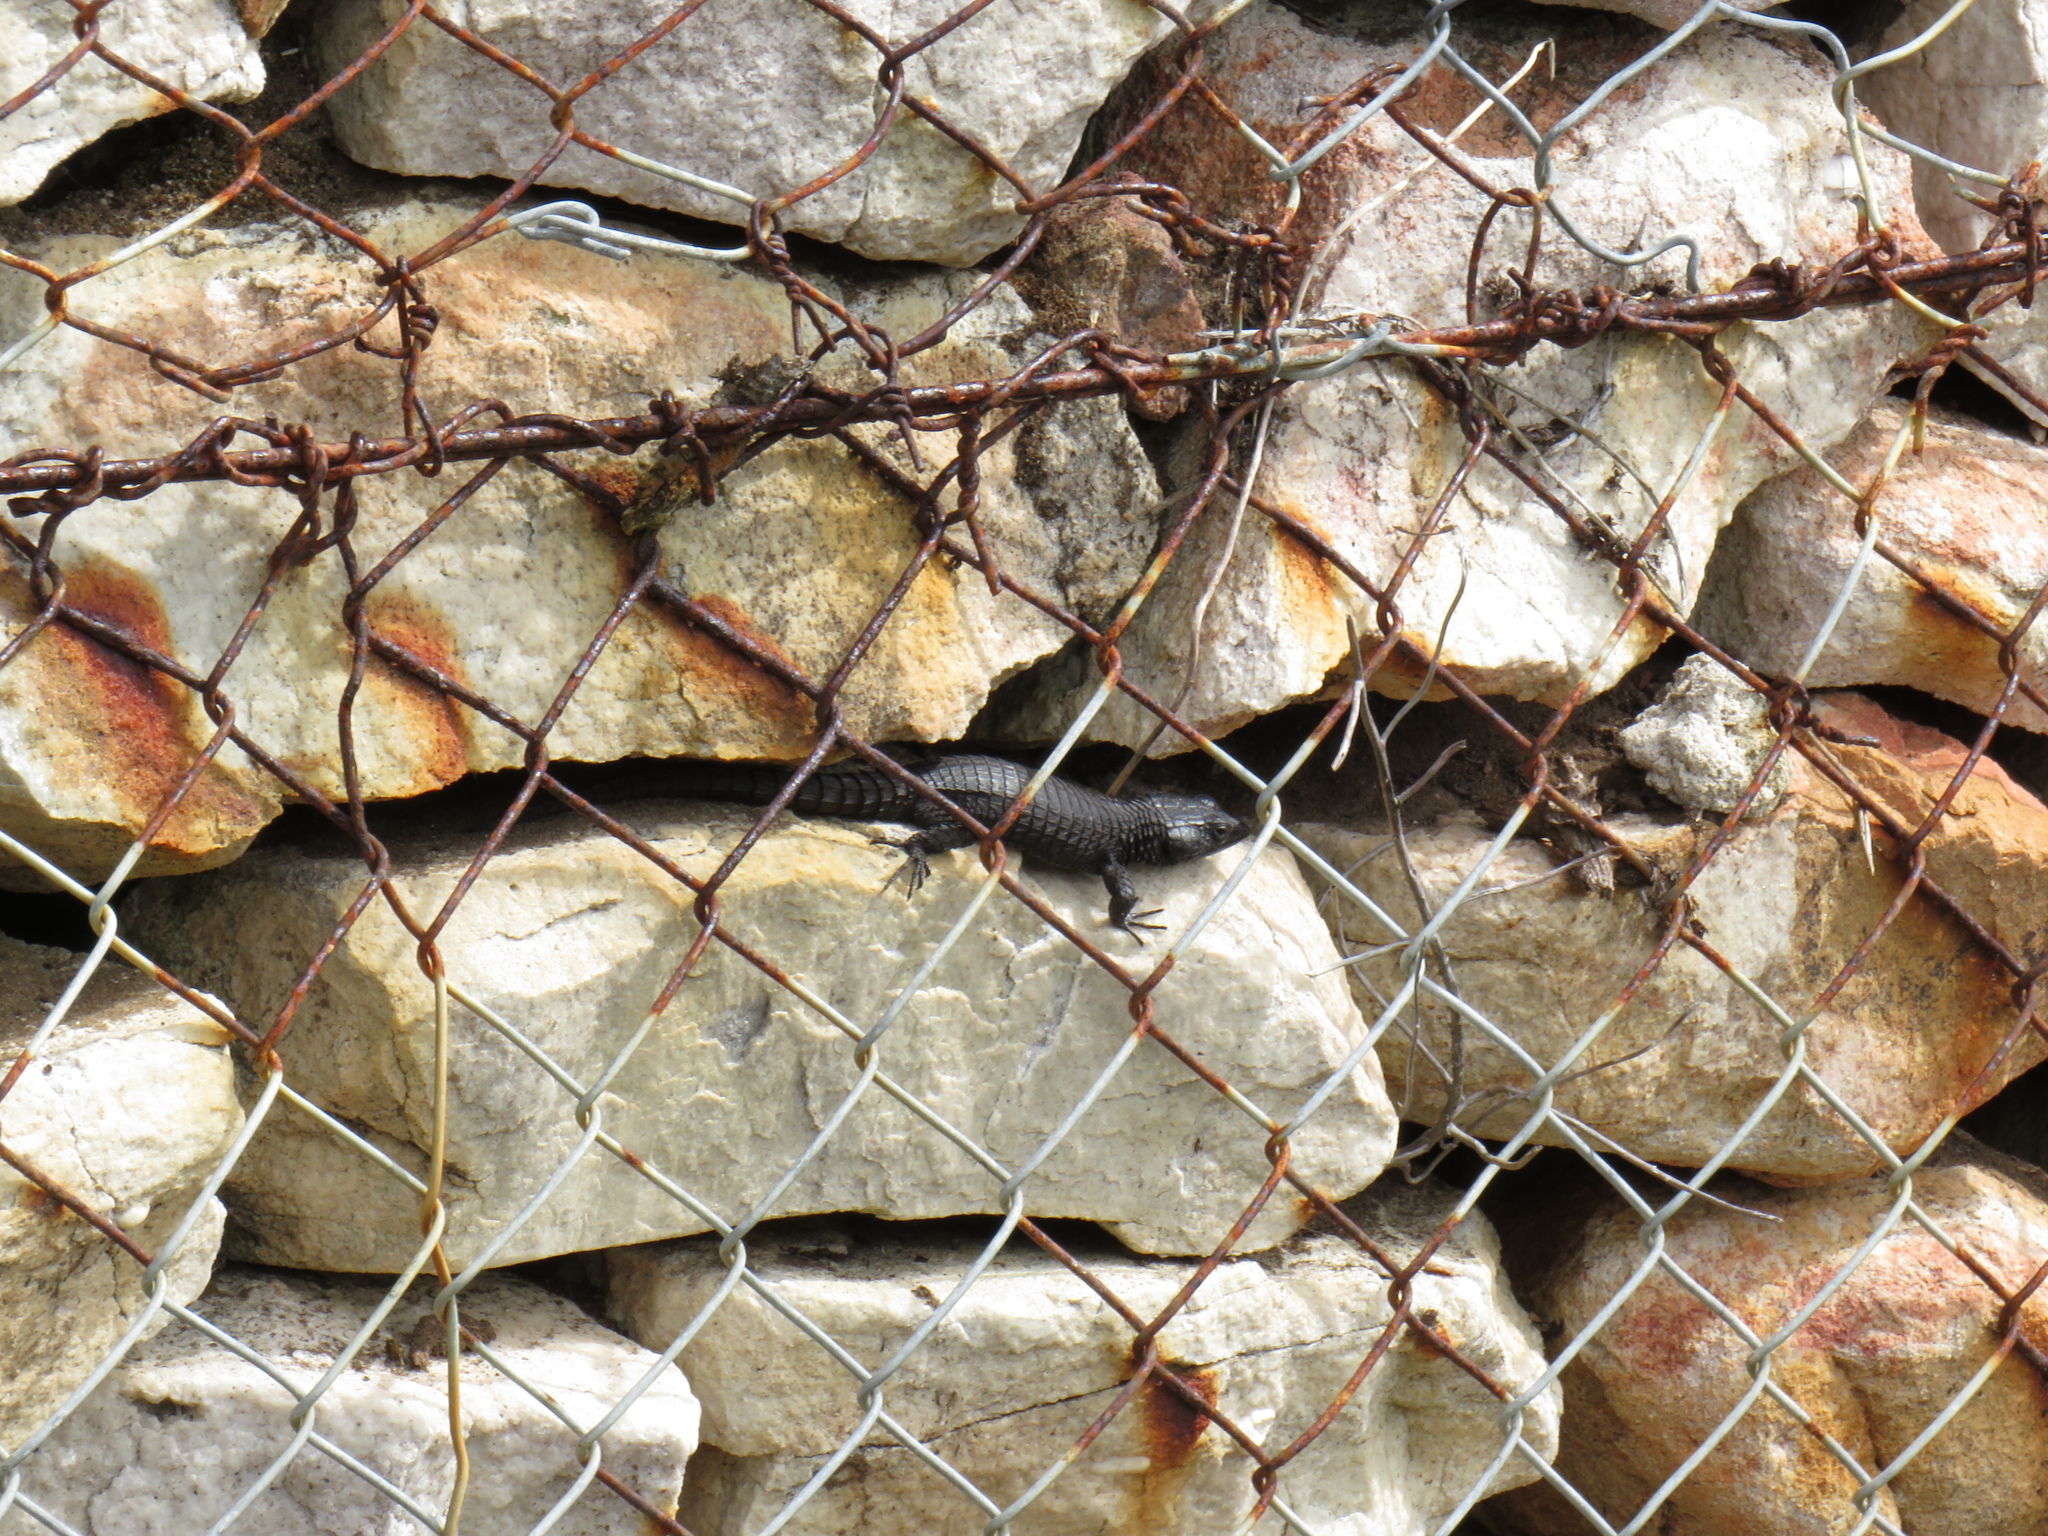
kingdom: Animalia
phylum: Chordata
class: Squamata
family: Cordylidae
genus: Cordylus
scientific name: Cordylus niger
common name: Black girdled lizard
